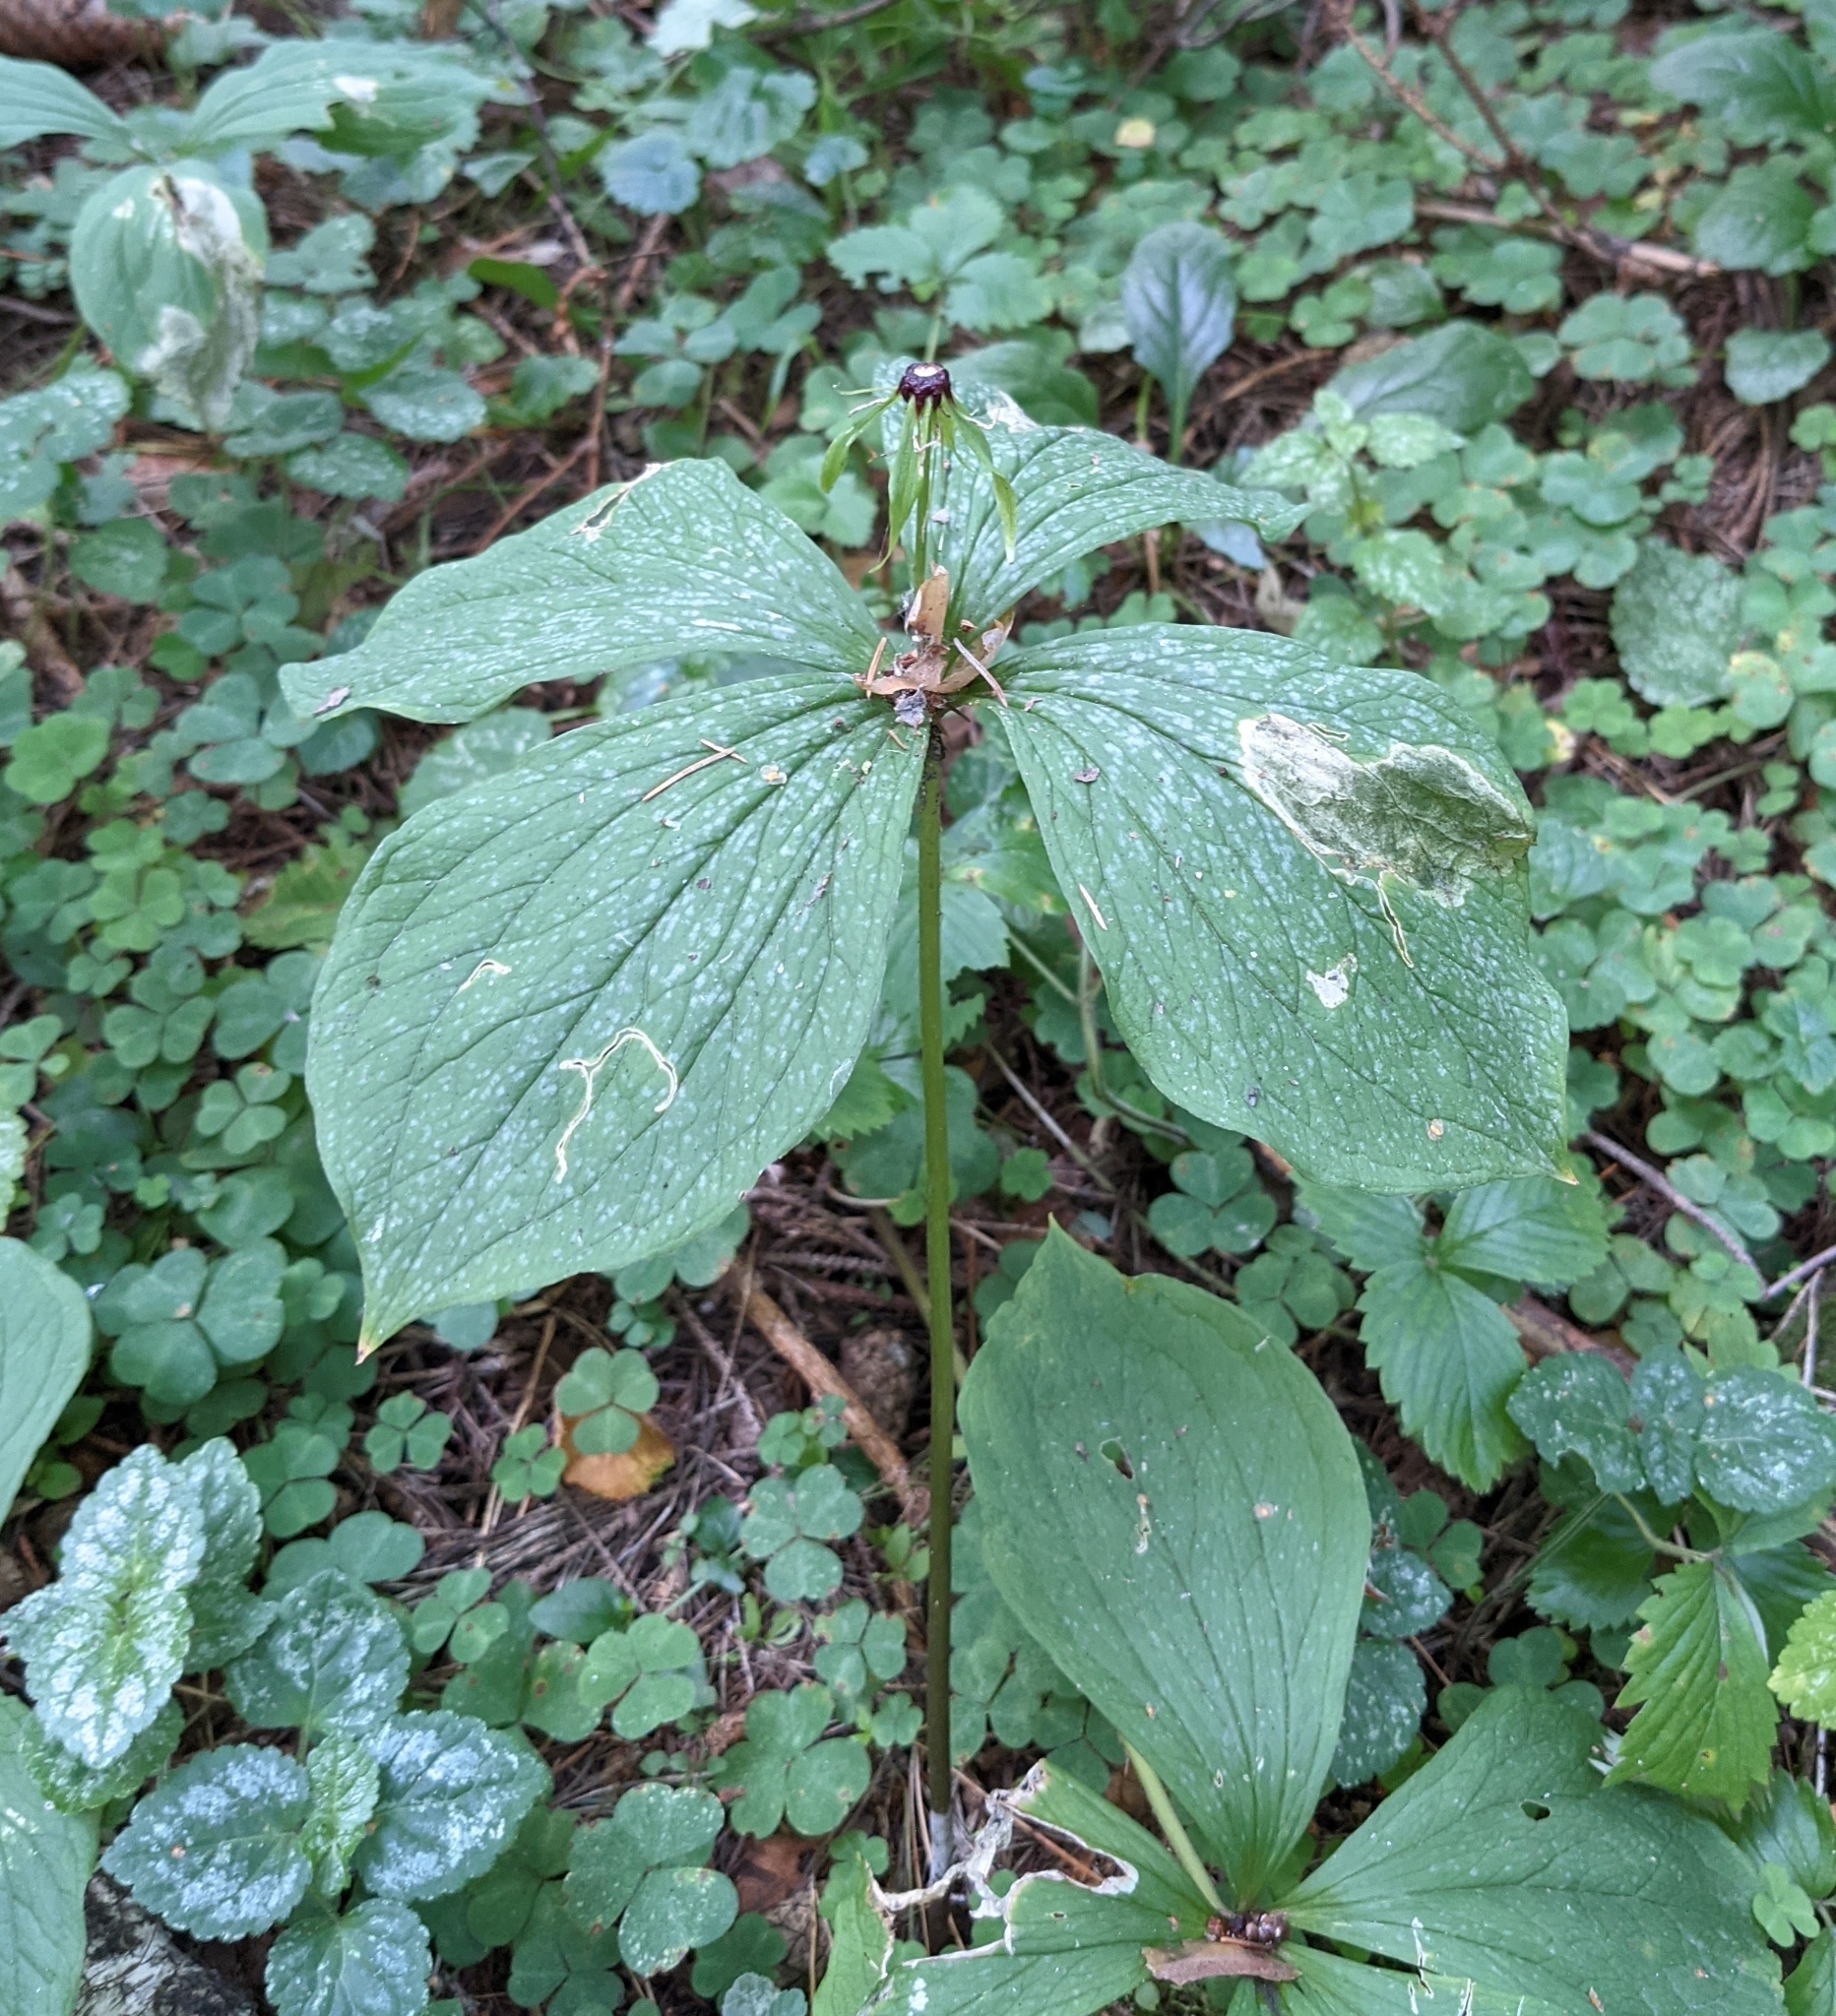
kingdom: Plantae
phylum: Tracheophyta
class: Liliopsida
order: Liliales
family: Melanthiaceae
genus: Paris
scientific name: Paris quadrifolia
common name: Herb-paris
